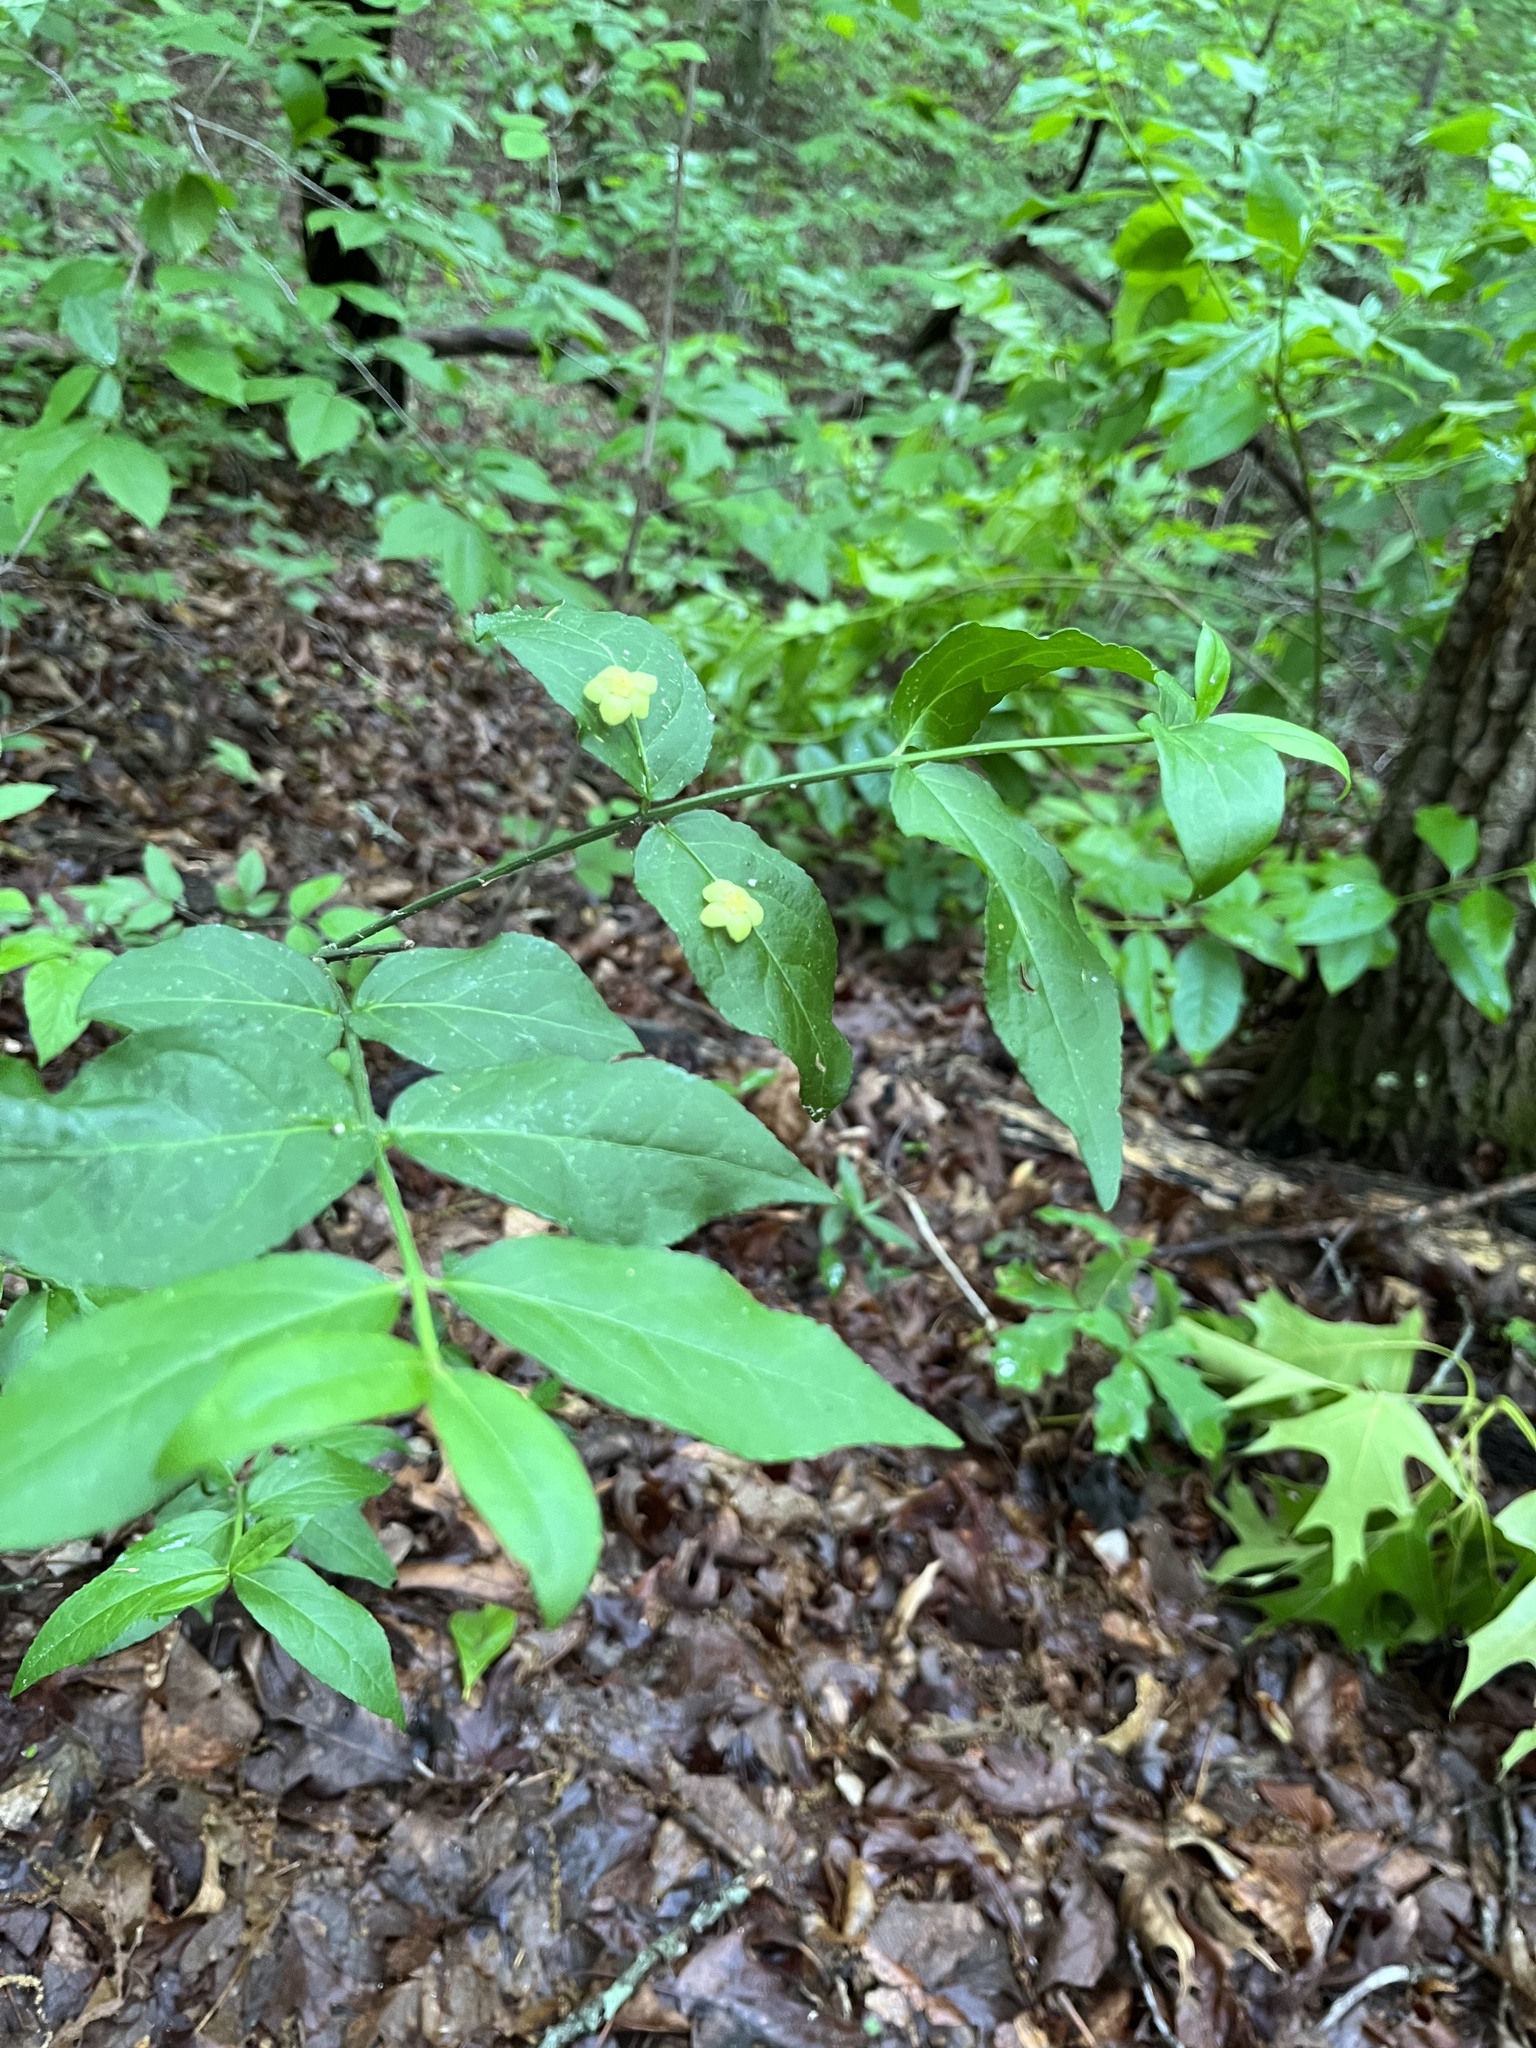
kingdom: Plantae
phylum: Tracheophyta
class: Magnoliopsida
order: Celastrales
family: Celastraceae
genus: Euonymus
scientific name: Euonymus americanus
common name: Bursting-heart
